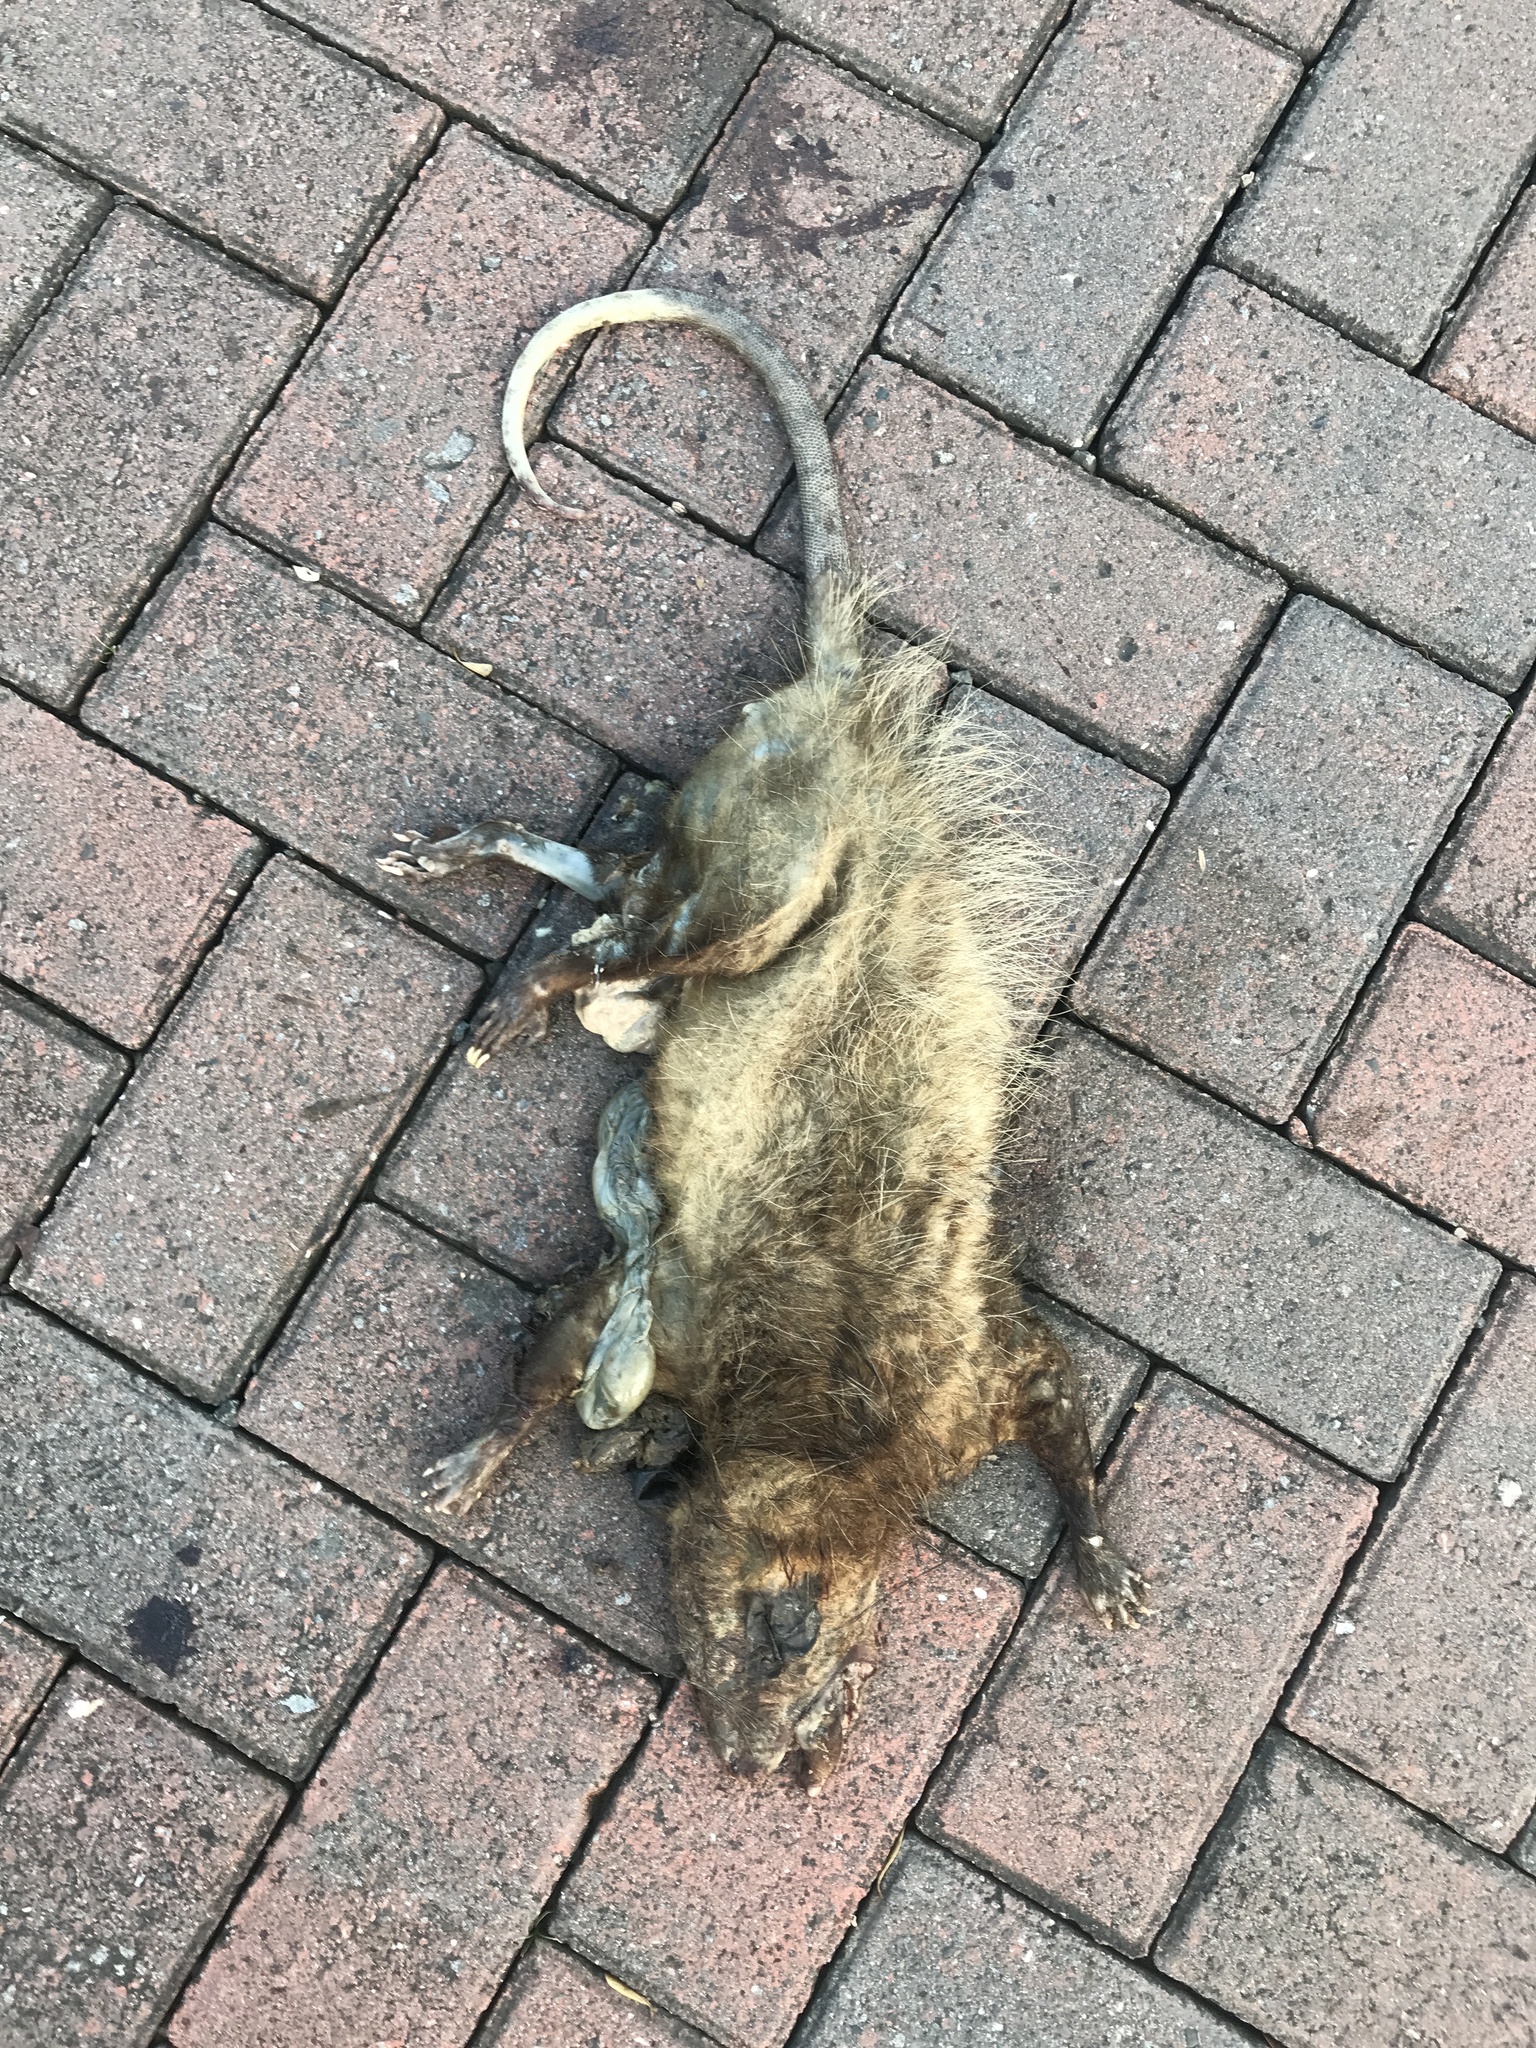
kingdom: Animalia
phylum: Chordata
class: Mammalia
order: Didelphimorphia
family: Didelphidae
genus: Didelphis
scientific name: Didelphis marsupialis
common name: Common opossum
